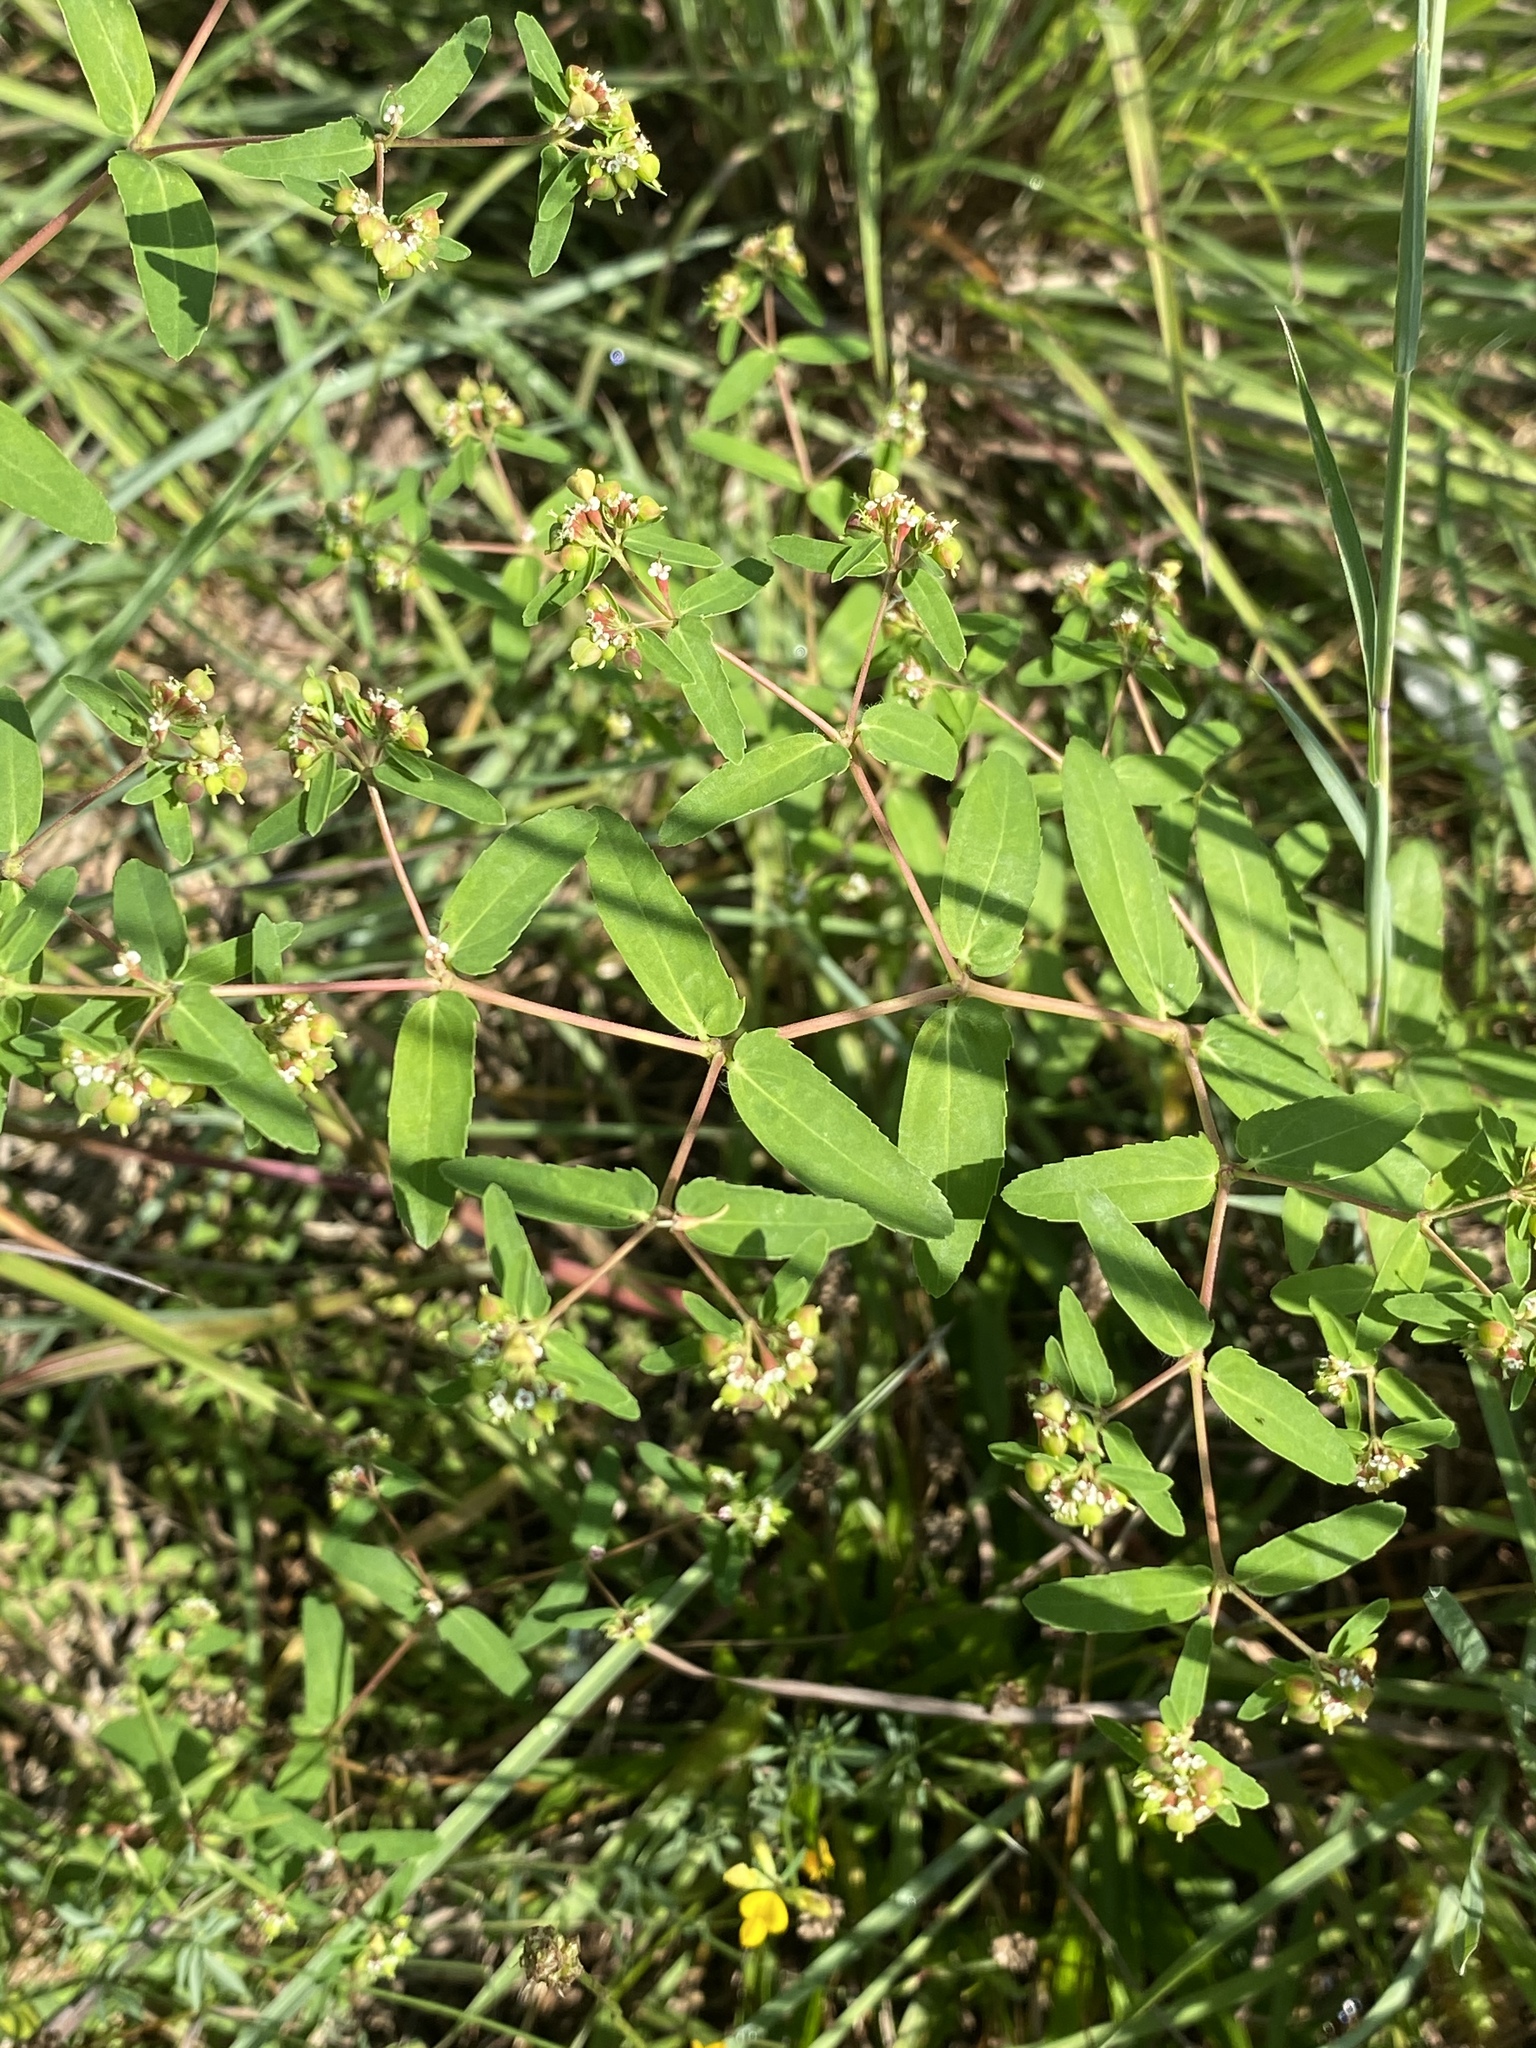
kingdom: Plantae
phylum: Tracheophyta
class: Magnoliopsida
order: Malpighiales
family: Euphorbiaceae
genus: Euphorbia
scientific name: Euphorbia nutans
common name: Eyebane
